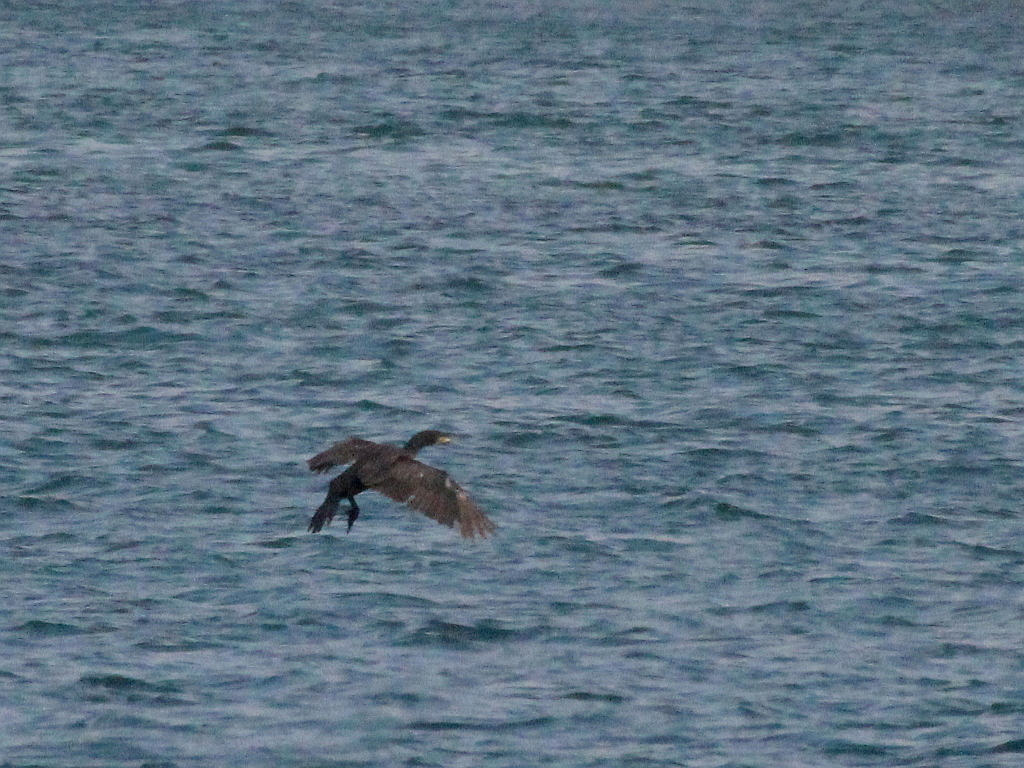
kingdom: Animalia
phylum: Chordata
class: Aves
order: Suliformes
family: Phalacrocoracidae
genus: Phalacrocorax
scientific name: Phalacrocorax carbo
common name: Great cormorant
